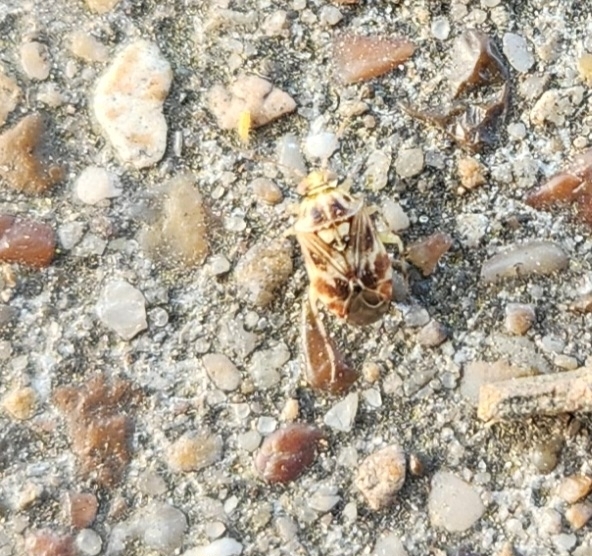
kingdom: Animalia
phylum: Arthropoda
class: Insecta
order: Hemiptera
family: Miridae
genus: Tropidosteptes
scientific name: Tropidosteptes quercicola
